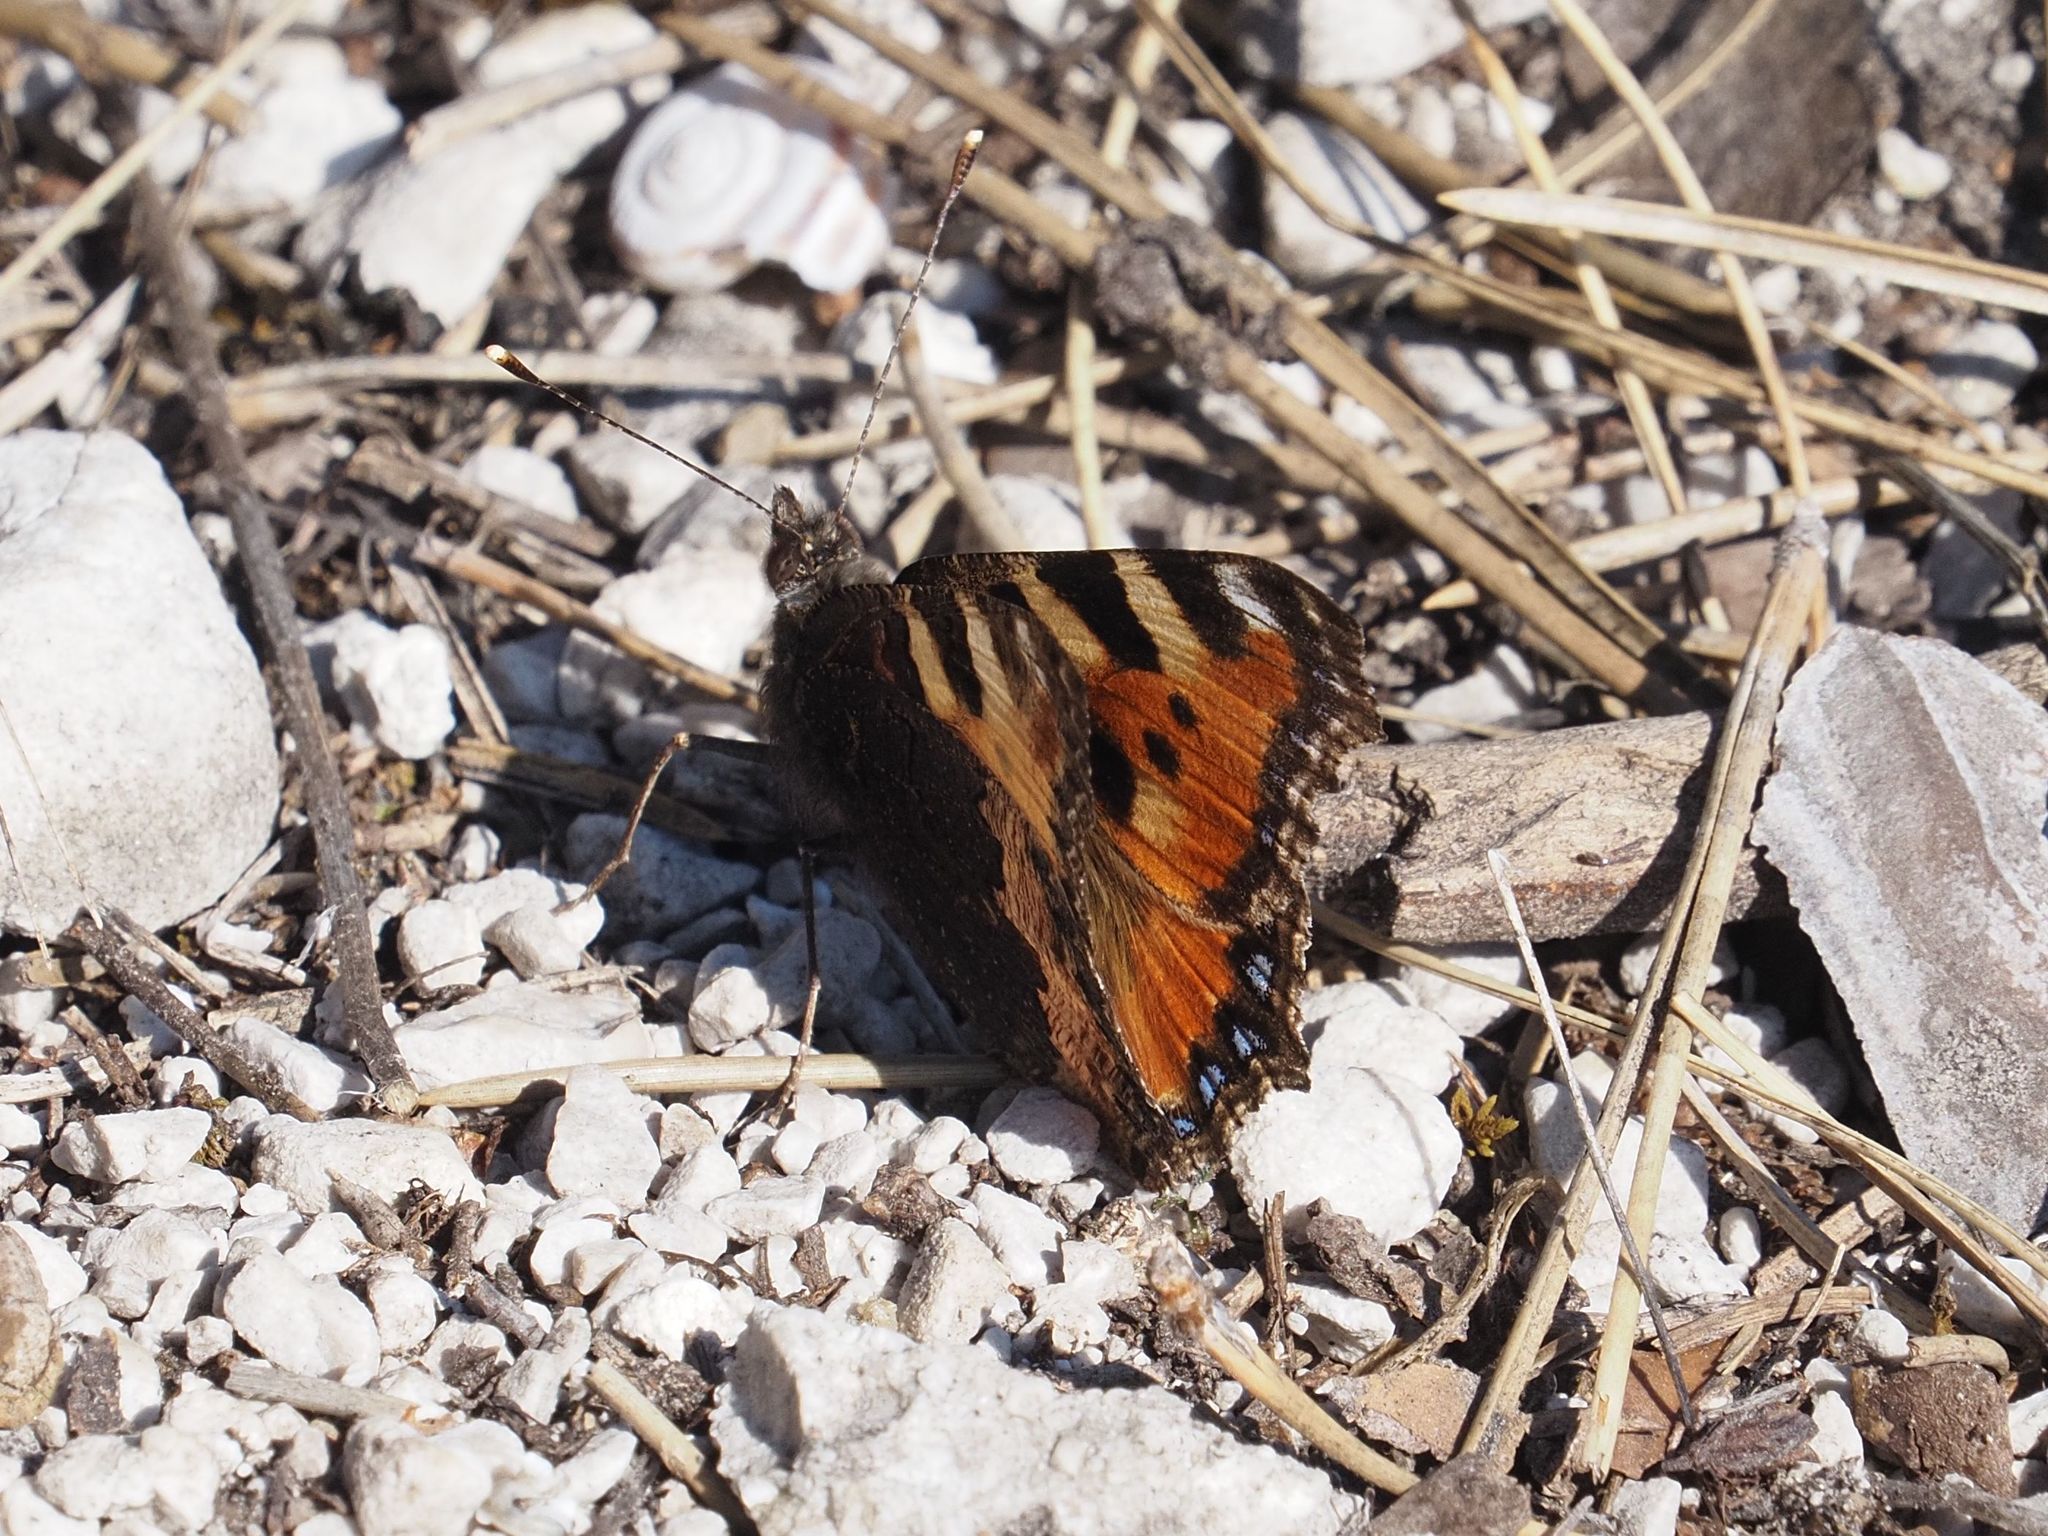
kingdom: Animalia
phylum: Arthropoda
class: Insecta
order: Lepidoptera
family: Nymphalidae
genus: Aglais
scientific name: Aglais urticae
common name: Small tortoiseshell
